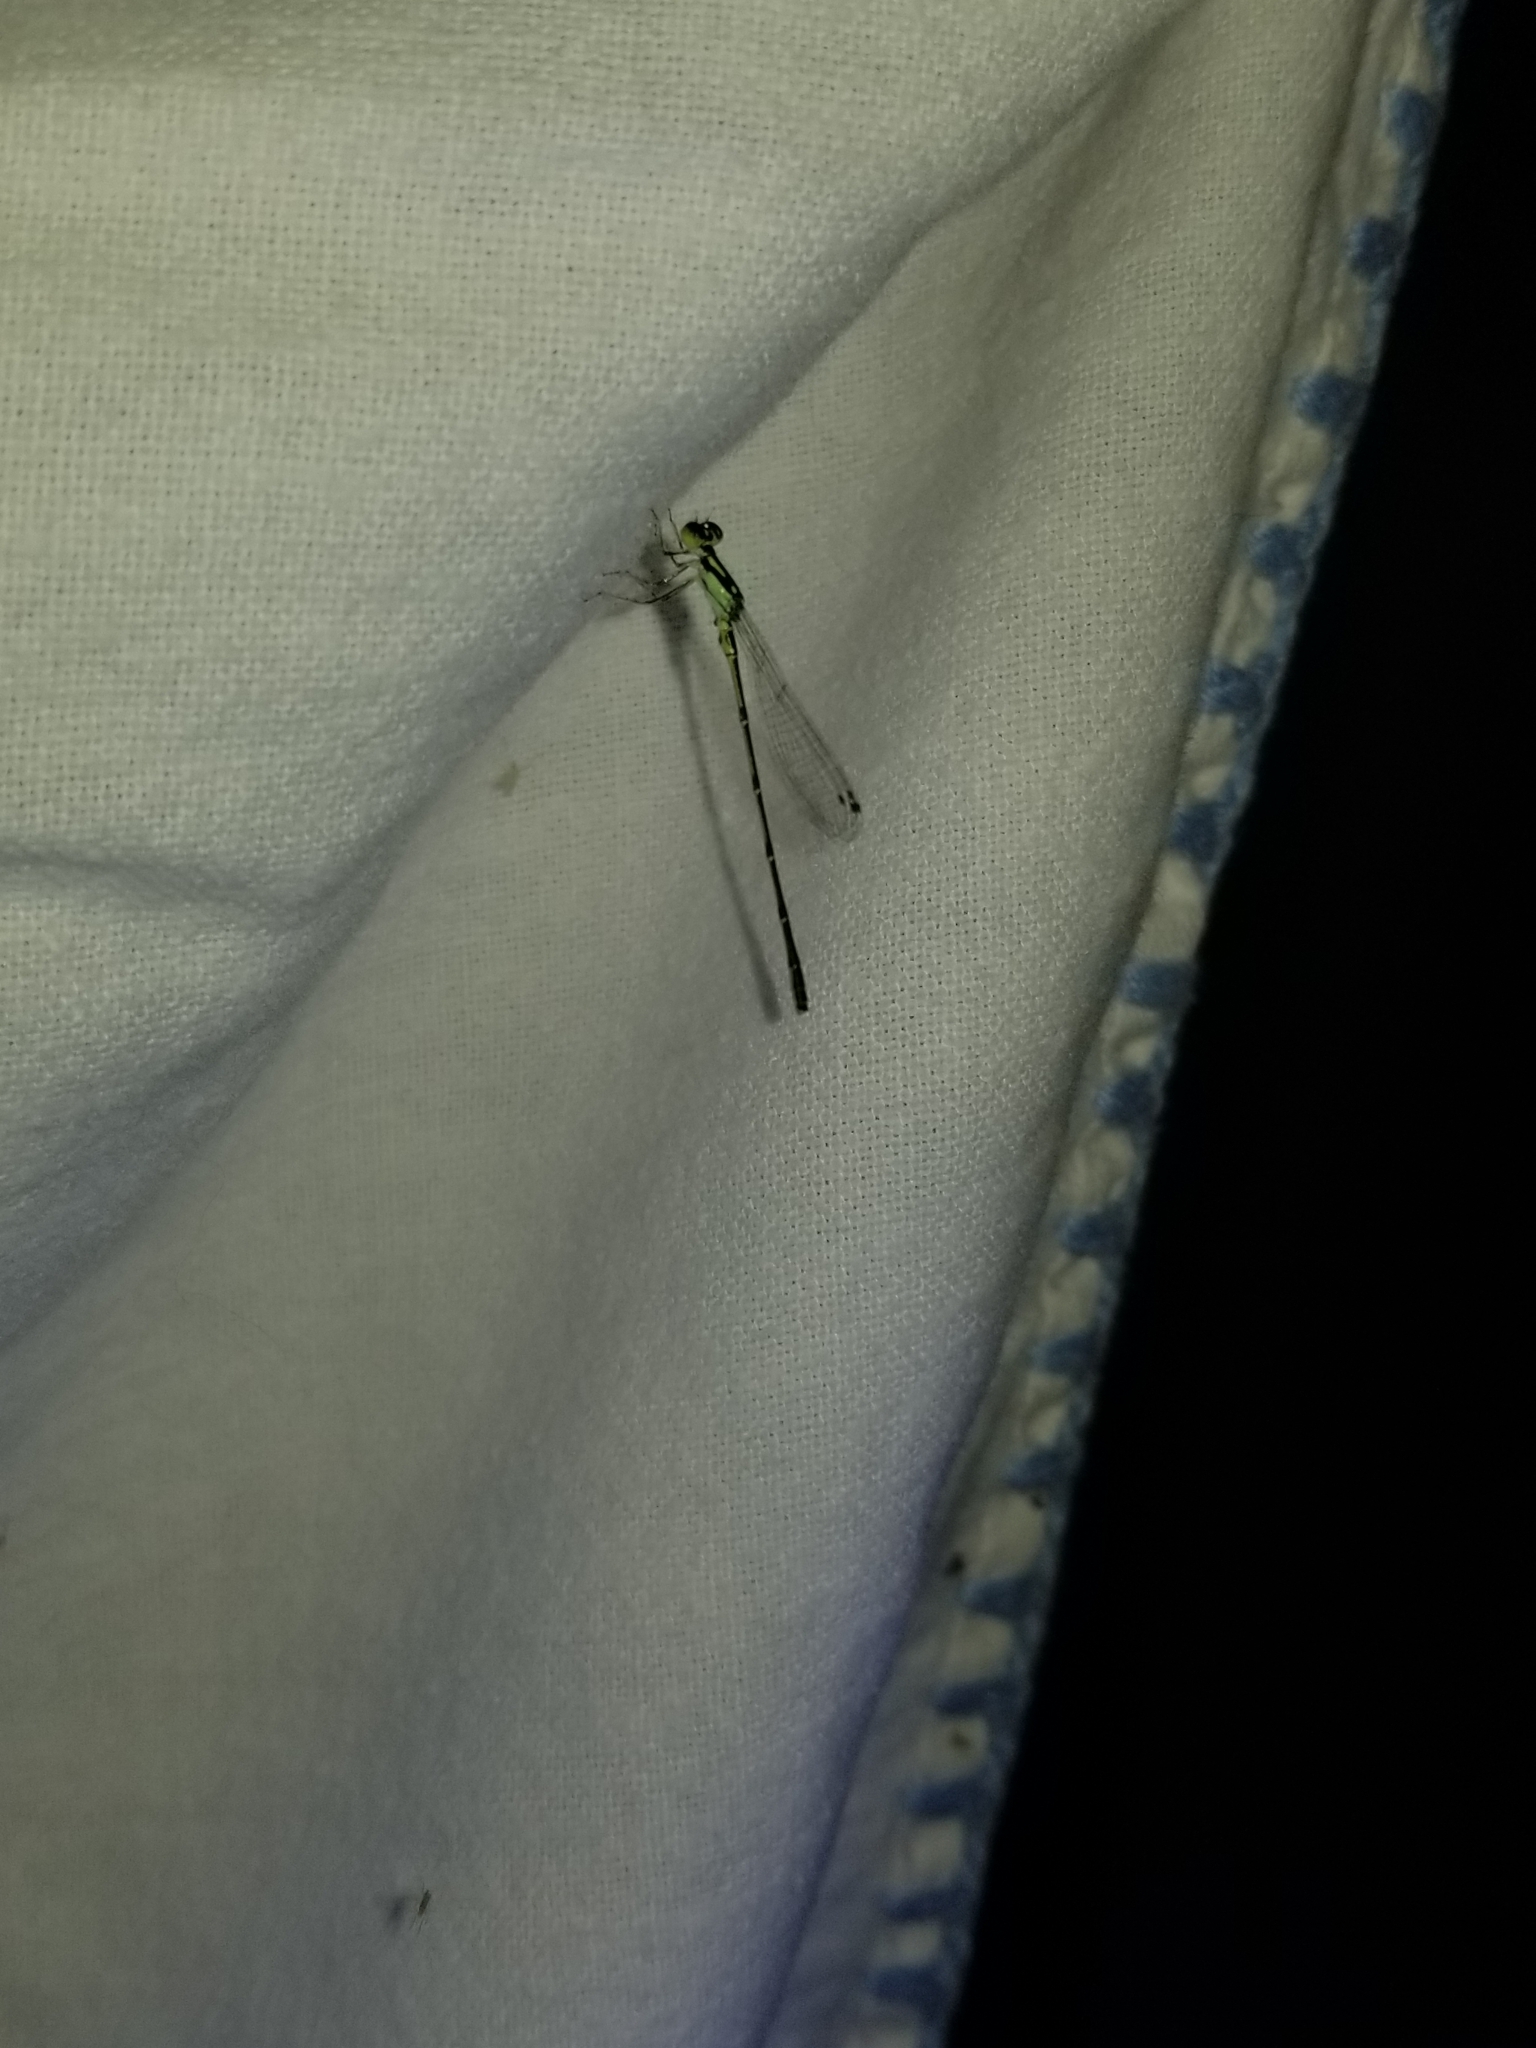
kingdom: Animalia
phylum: Arthropoda
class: Insecta
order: Odonata
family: Coenagrionidae
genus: Ischnura
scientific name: Ischnura posita
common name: Fragile forktail
